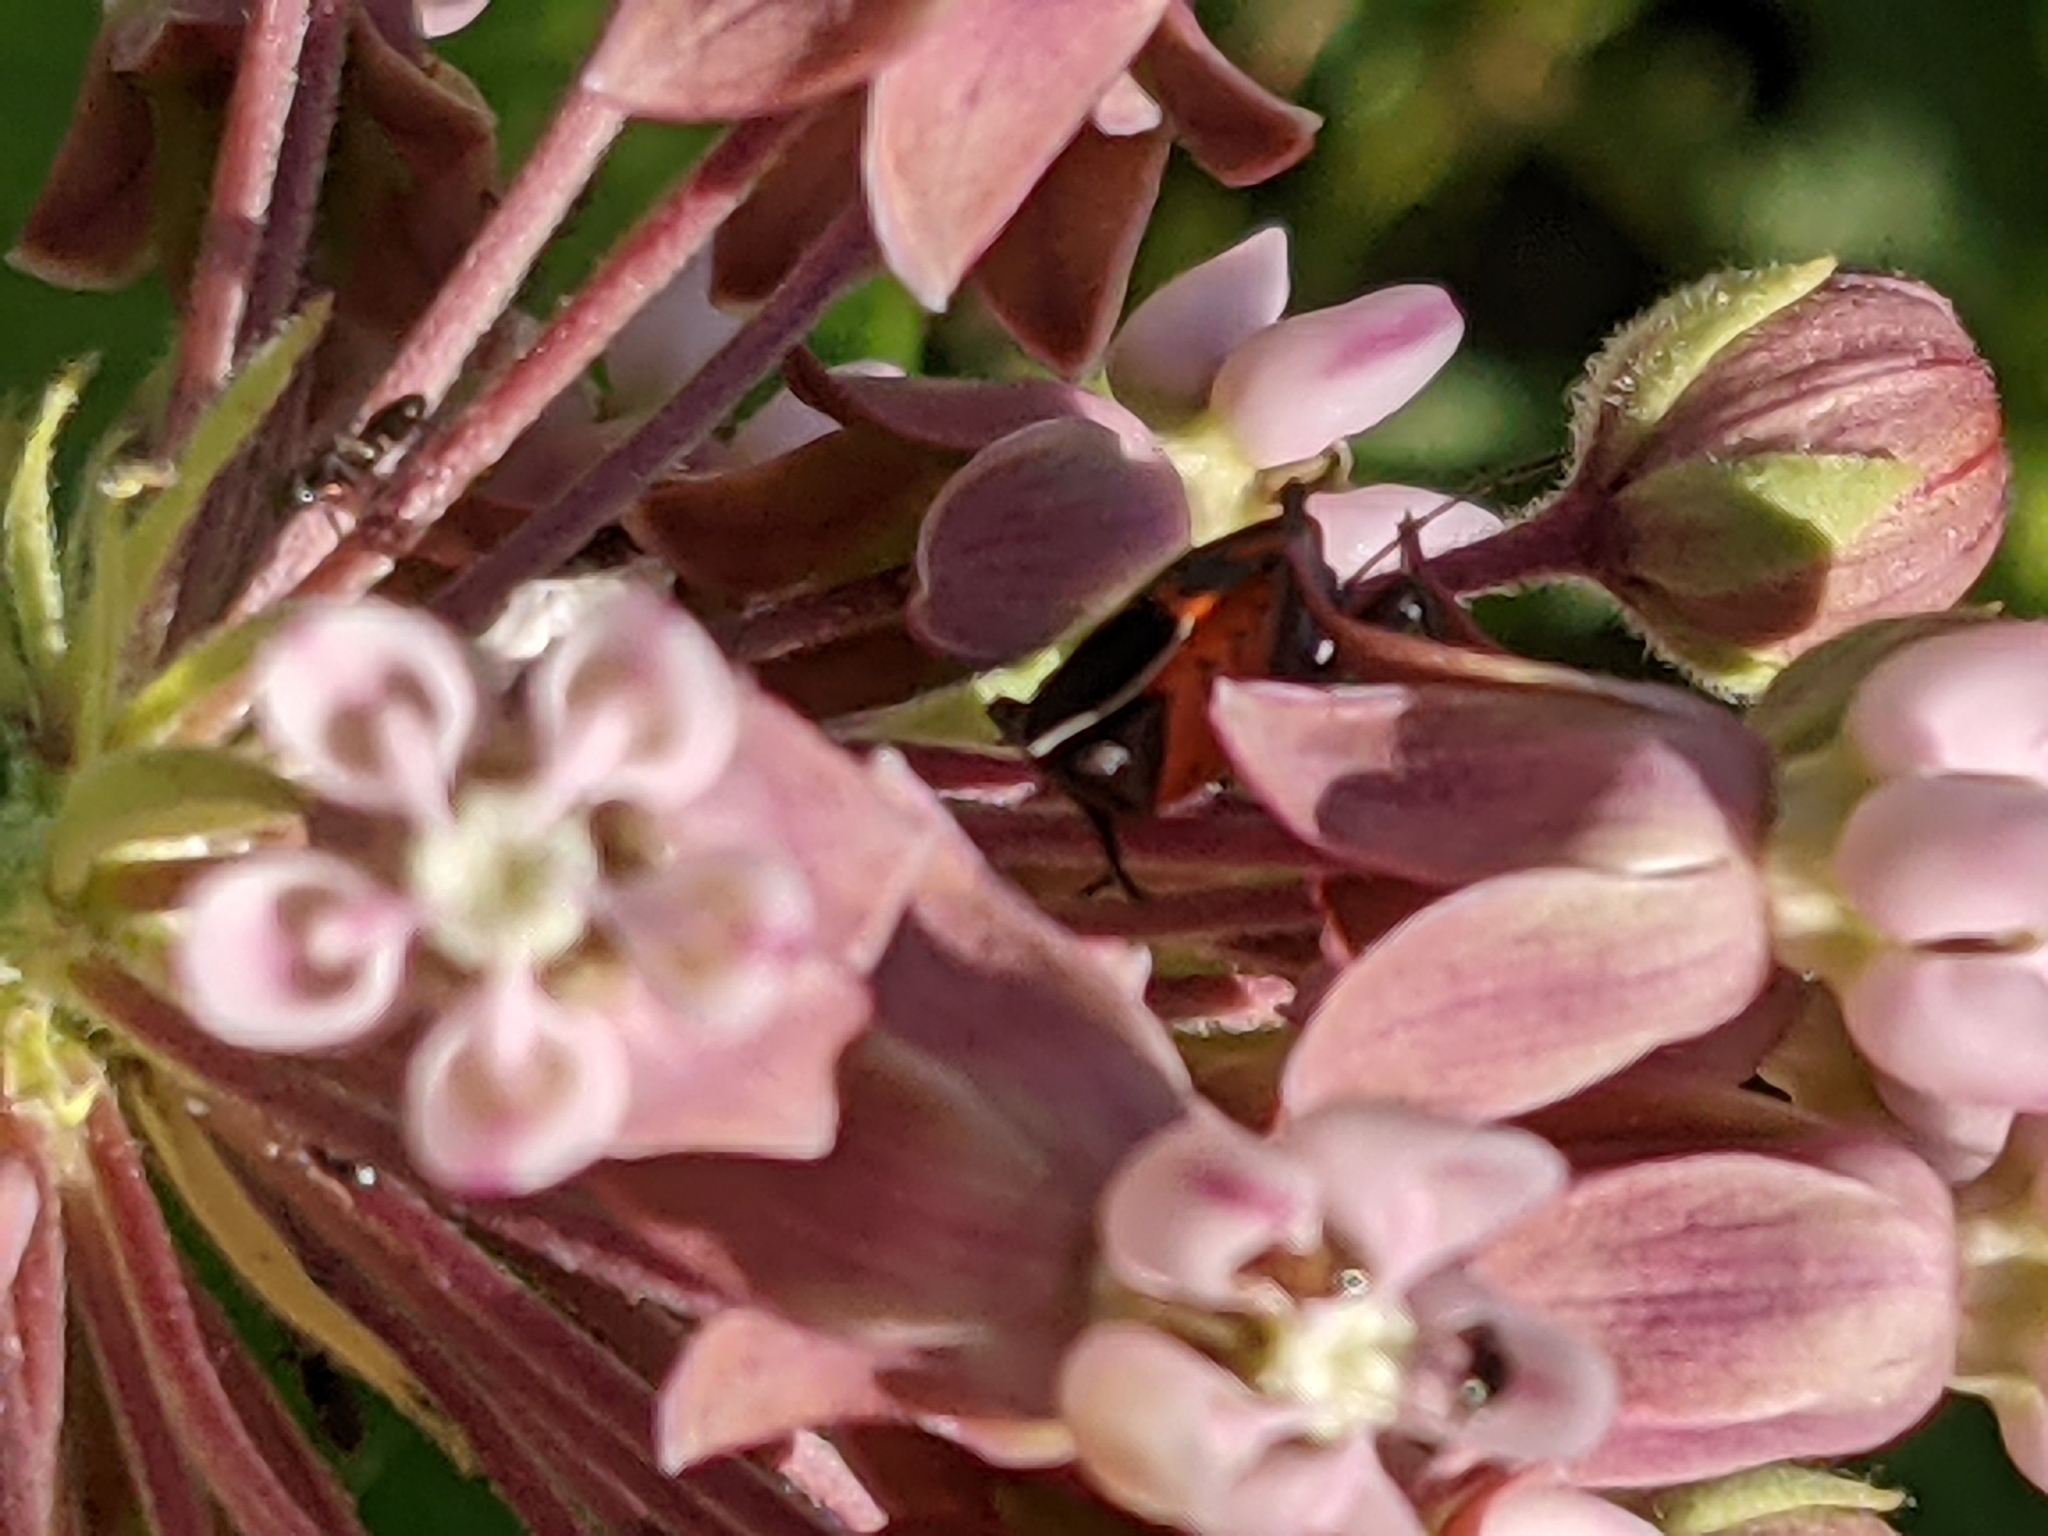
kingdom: Animalia
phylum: Arthropoda
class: Insecta
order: Hemiptera
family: Lygaeidae
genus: Lygaeus
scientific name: Lygaeus kalmii
